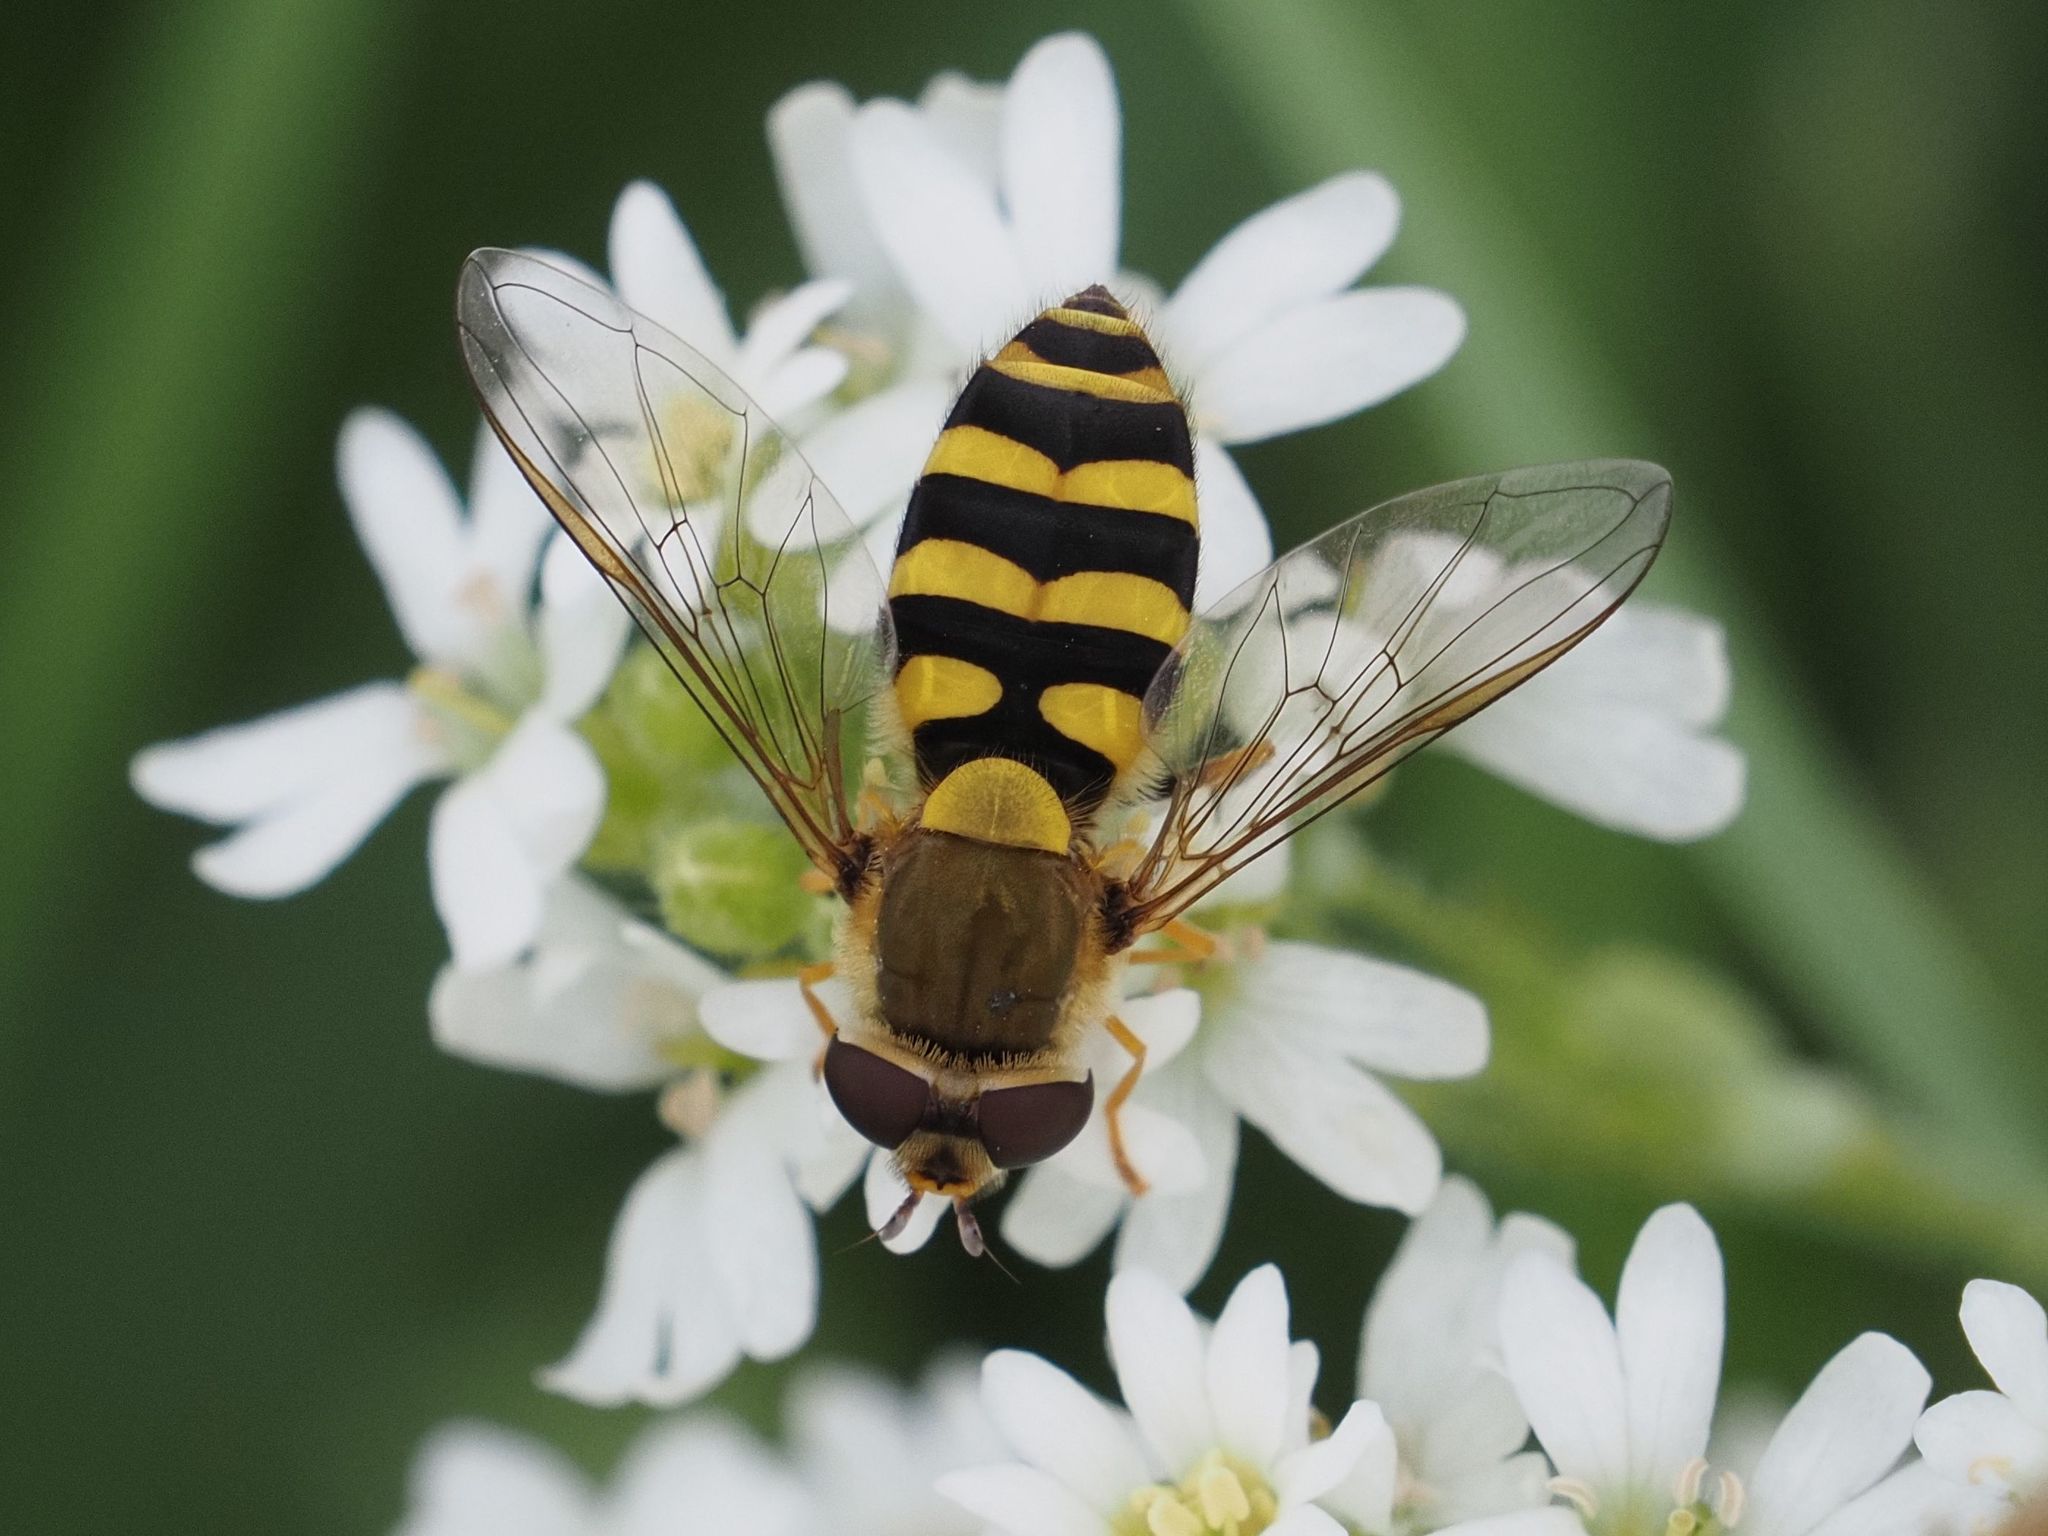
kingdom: Animalia
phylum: Arthropoda
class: Insecta
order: Diptera
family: Syrphidae
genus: Syrphus
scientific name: Syrphus
